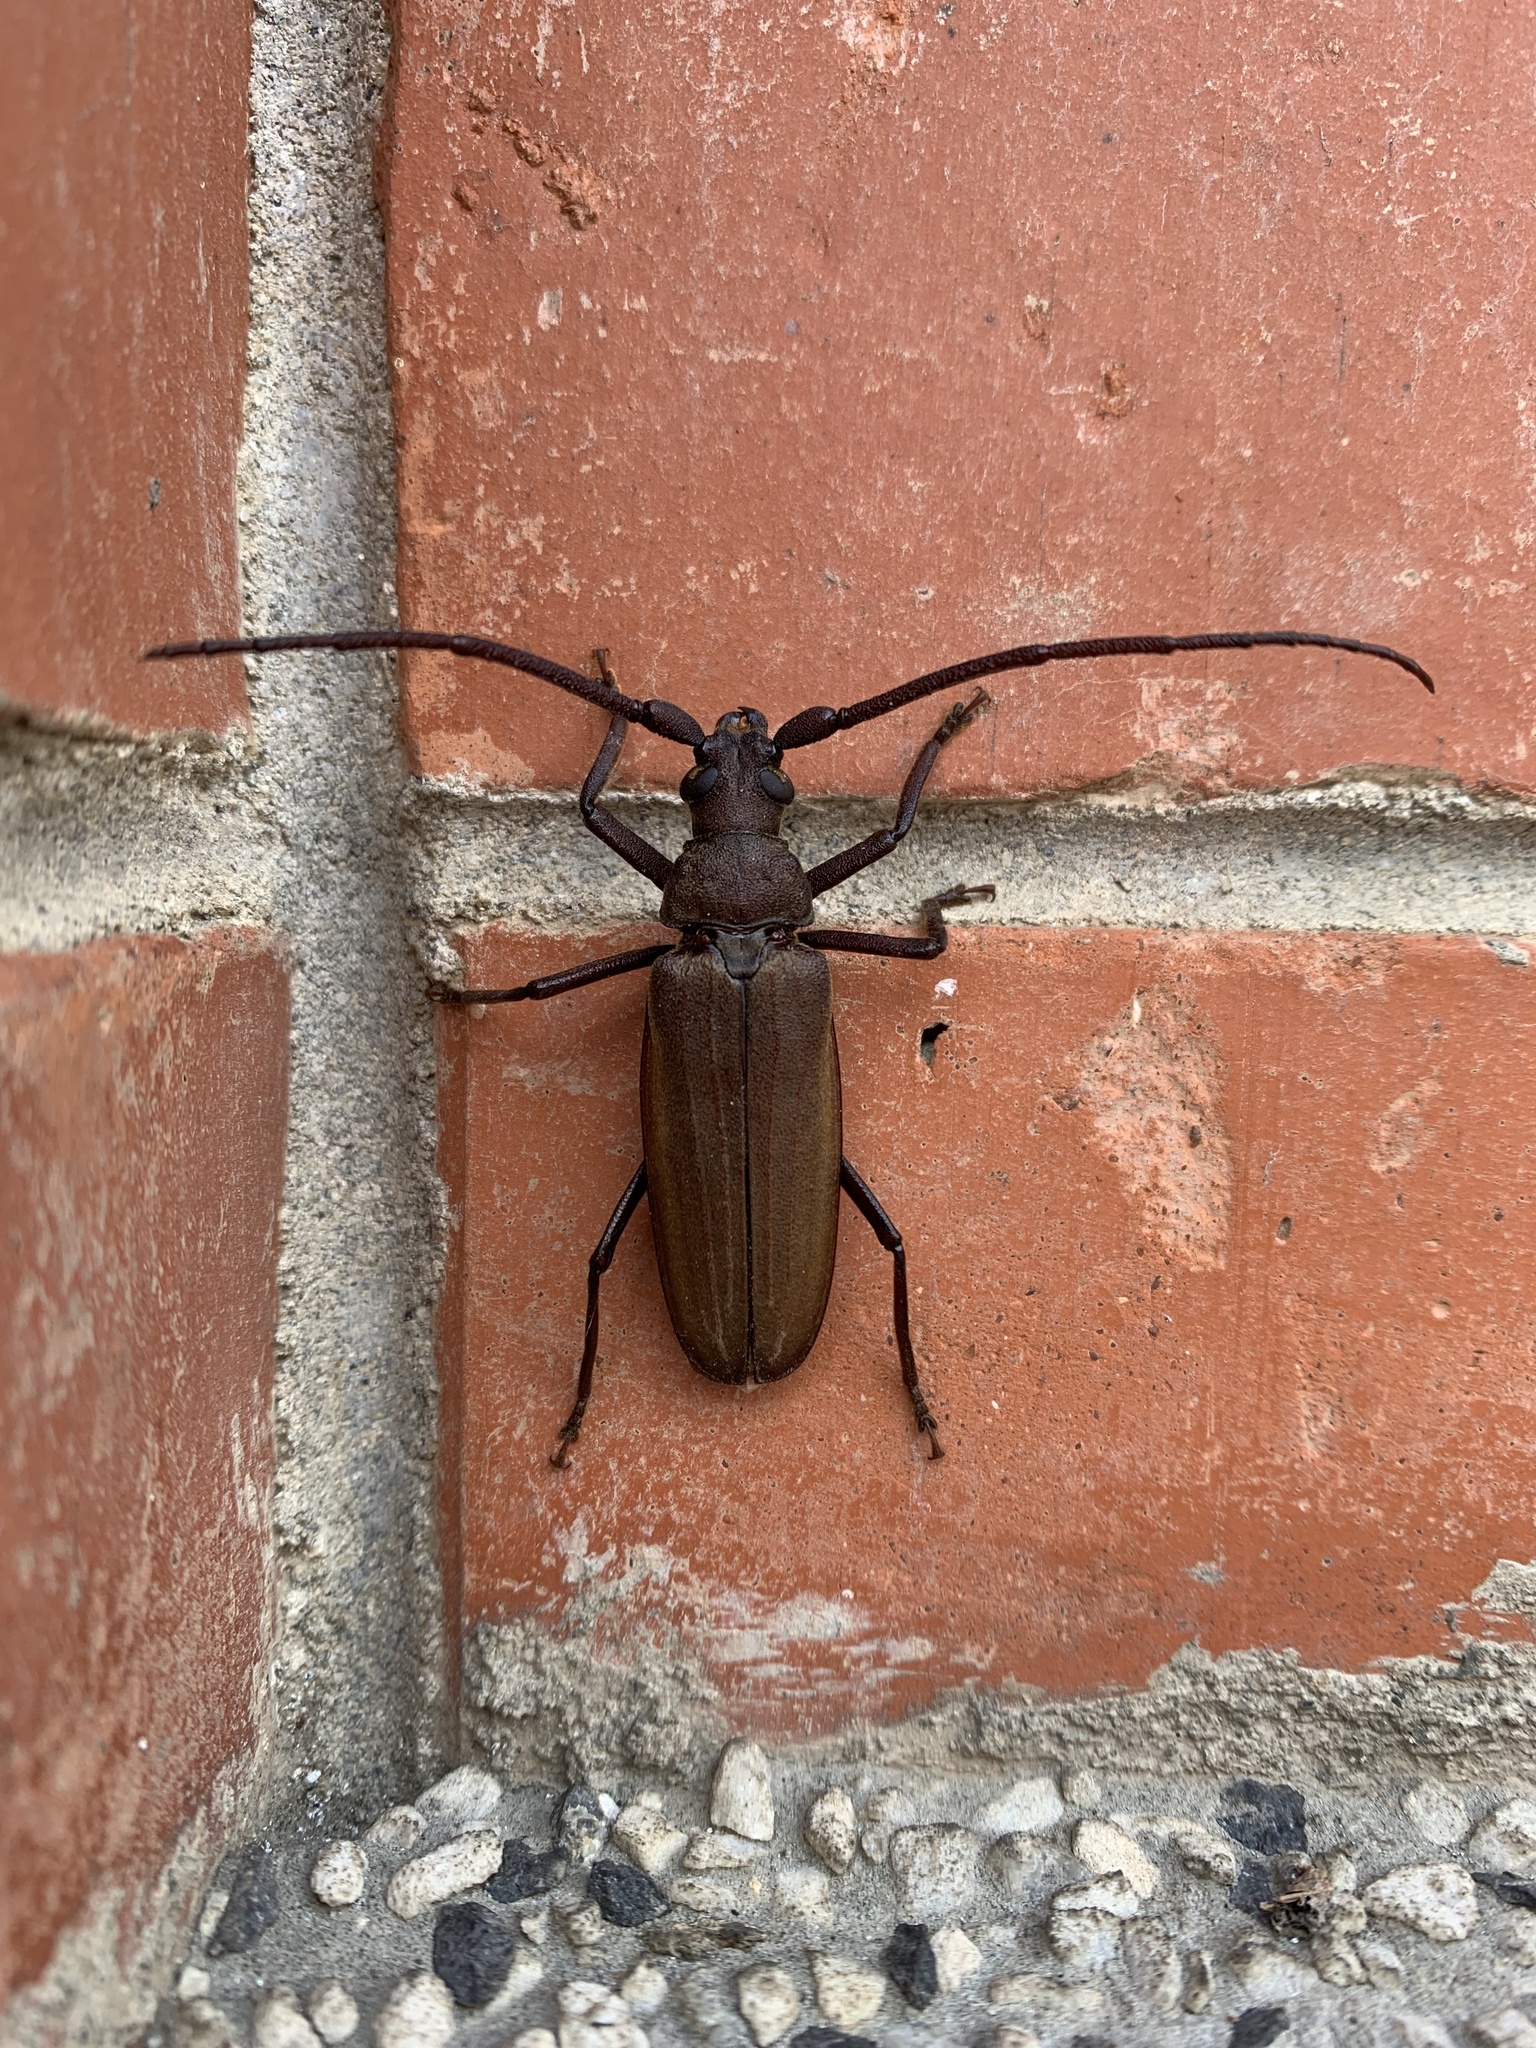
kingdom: Animalia
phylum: Arthropoda
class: Insecta
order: Coleoptera
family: Cerambycidae
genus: Aegosoma
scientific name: Aegosoma scabricorne
